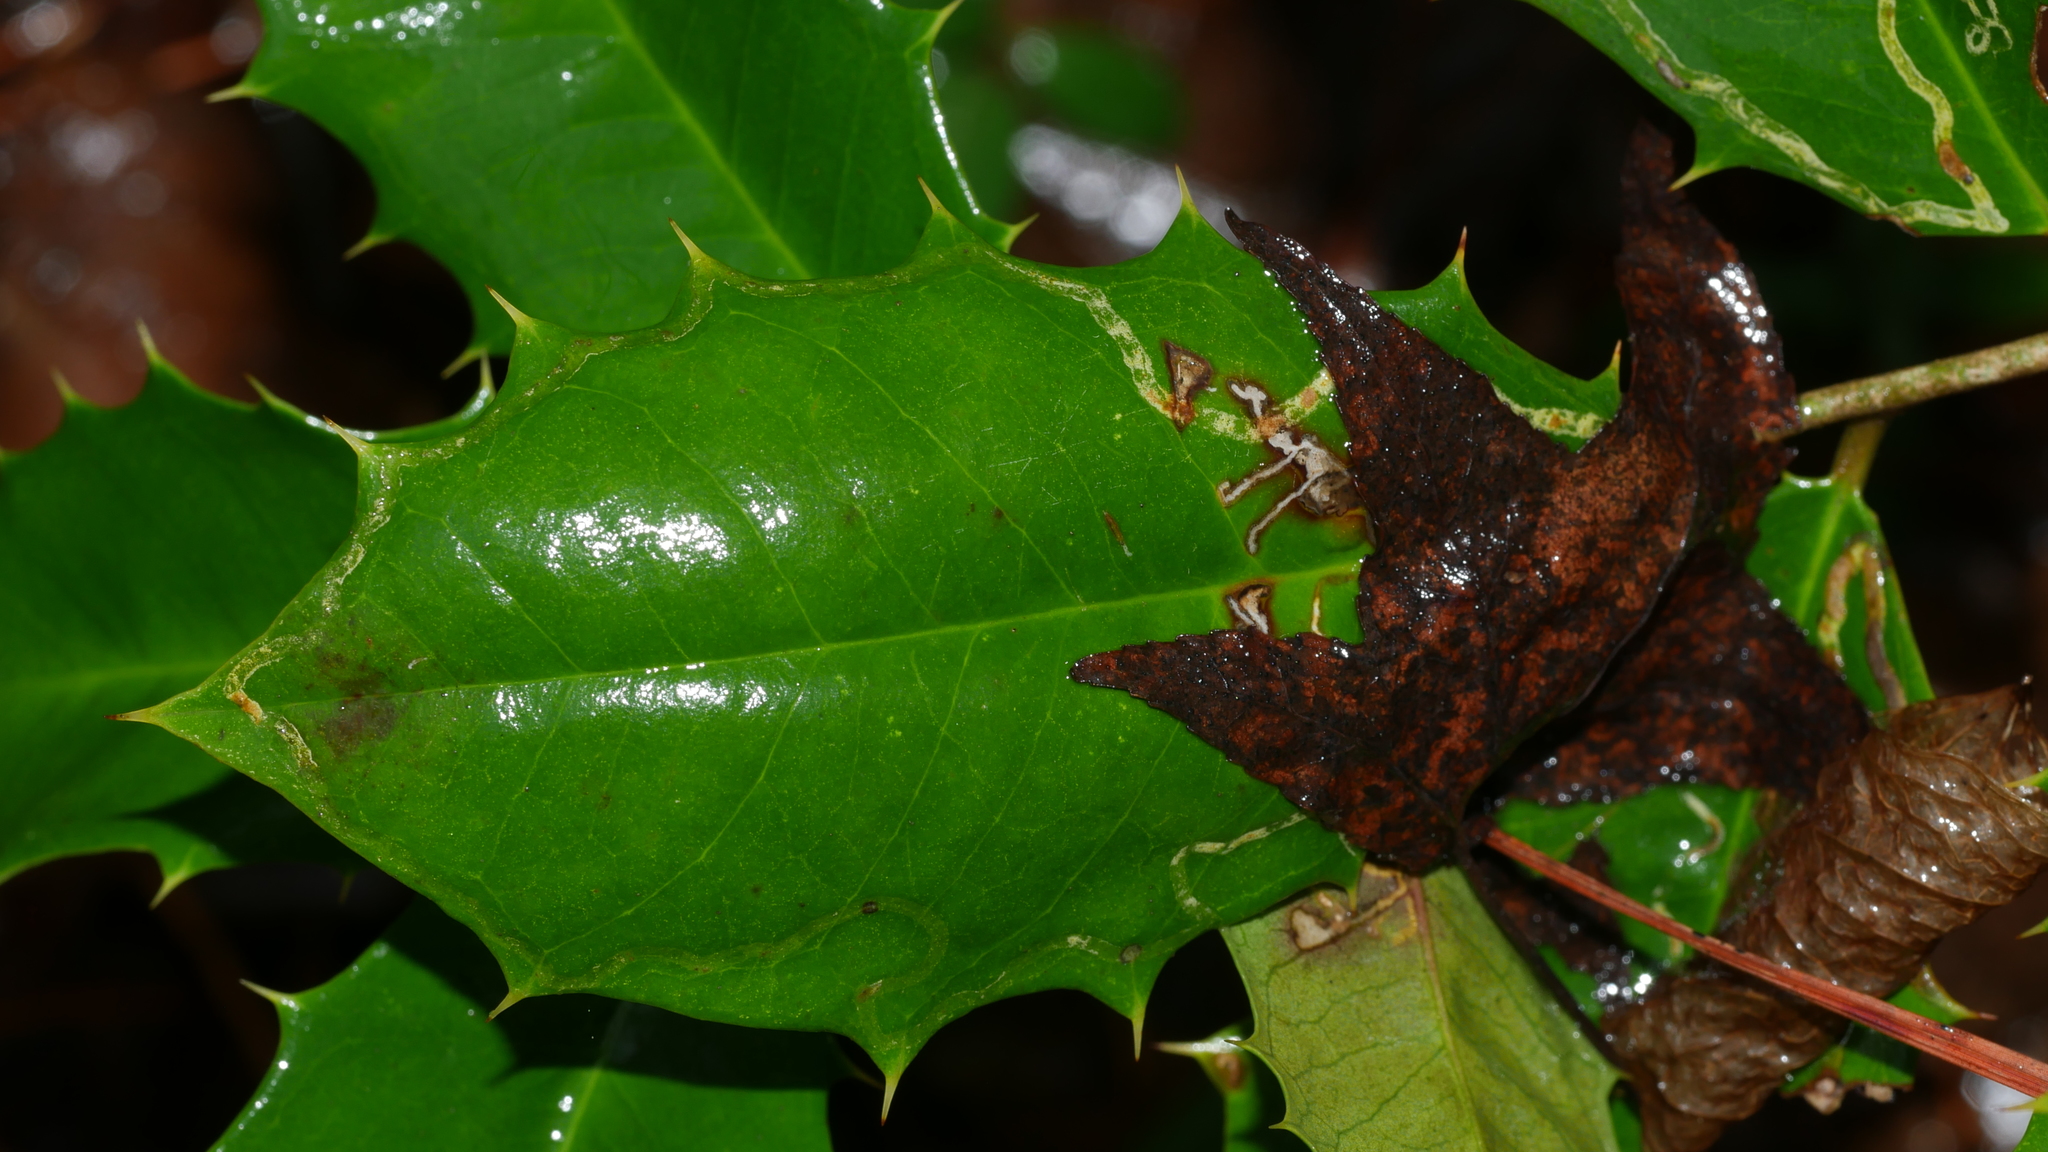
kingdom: Animalia
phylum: Arthropoda
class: Insecta
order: Diptera
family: Agromyzidae
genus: Phytomyza
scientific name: Phytomyza opacae
